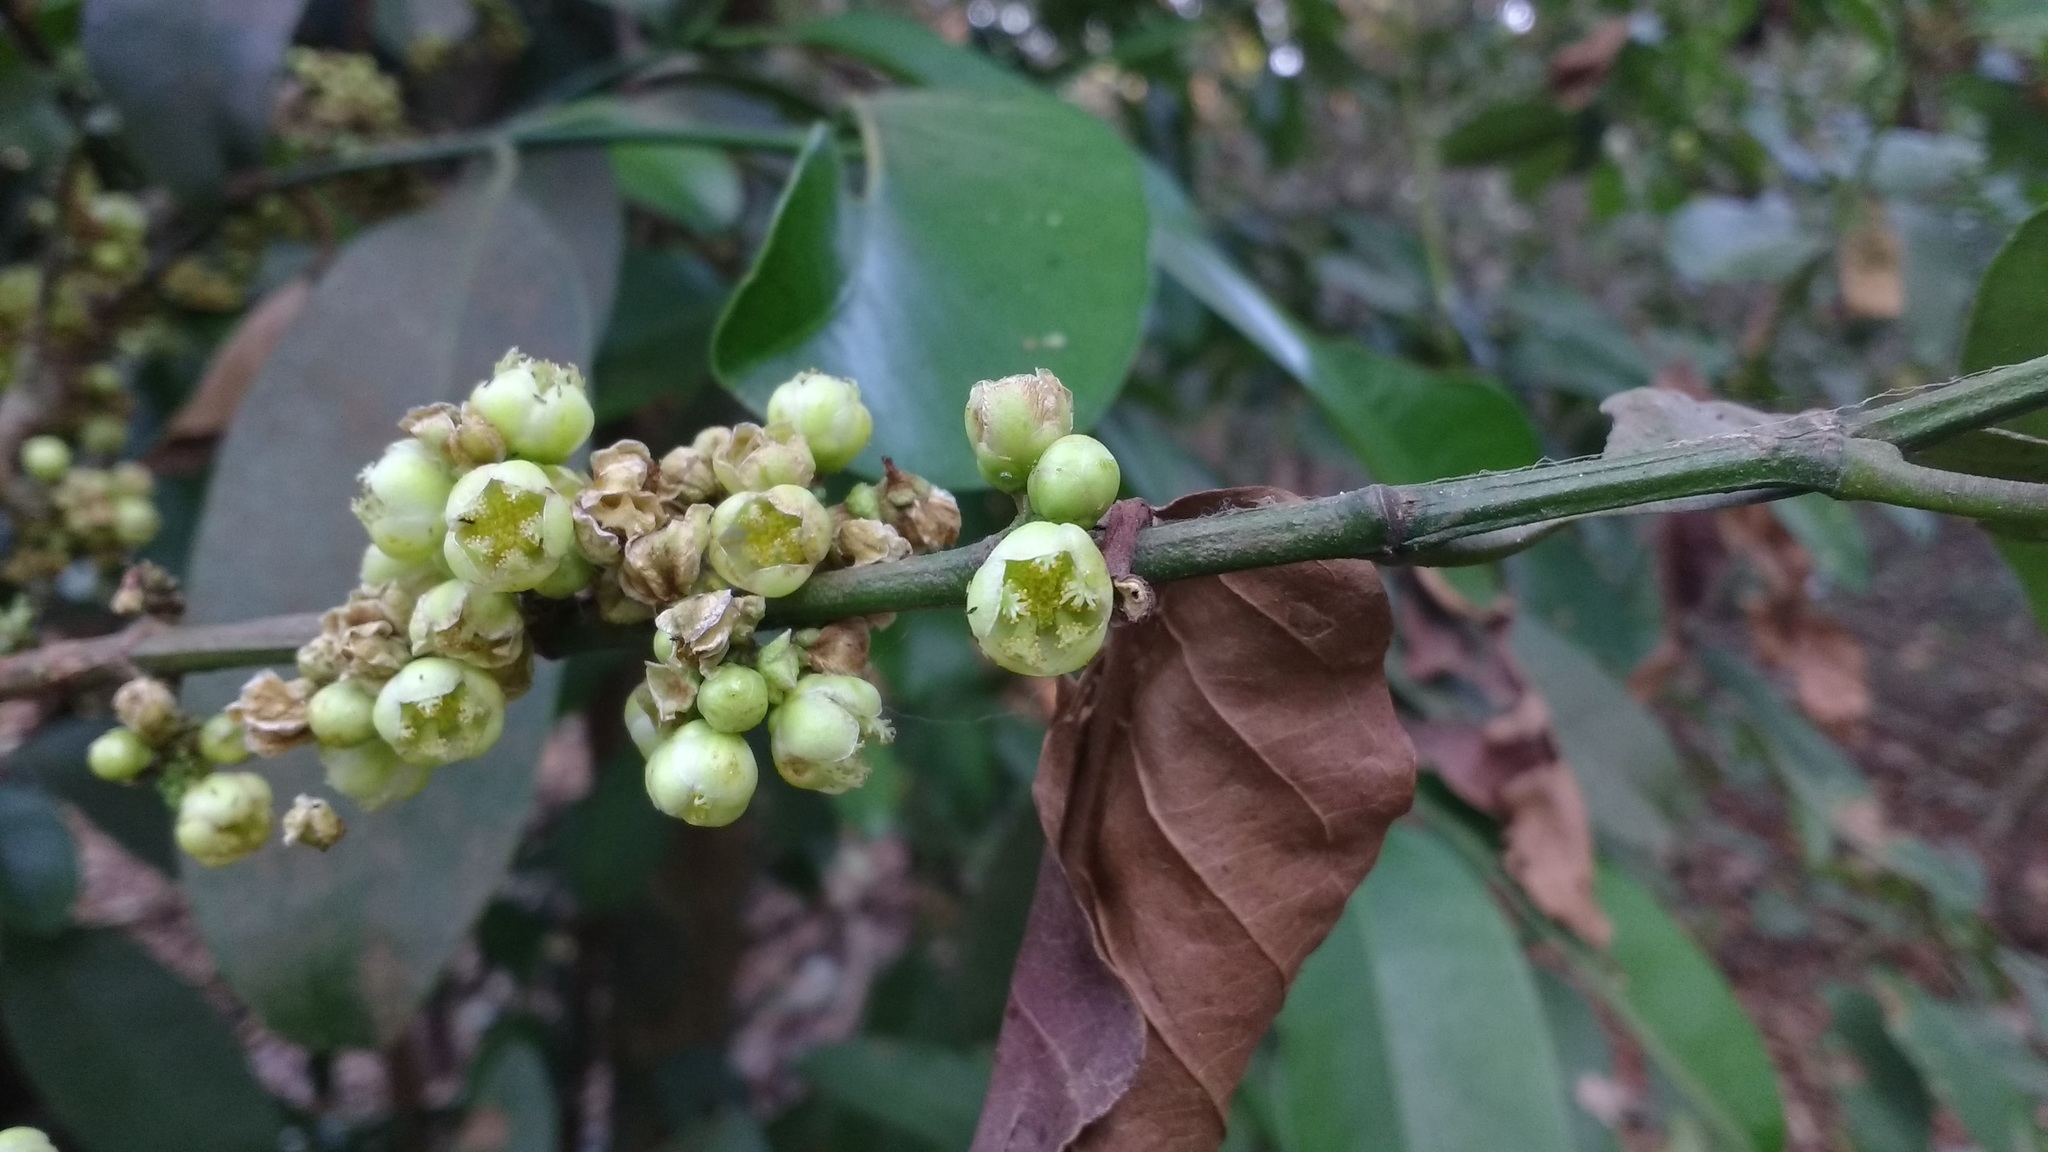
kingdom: Plantae
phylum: Tracheophyta
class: Magnoliopsida
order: Malpighiales
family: Clusiaceae
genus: Garcinia
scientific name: Garcinia talbotii
